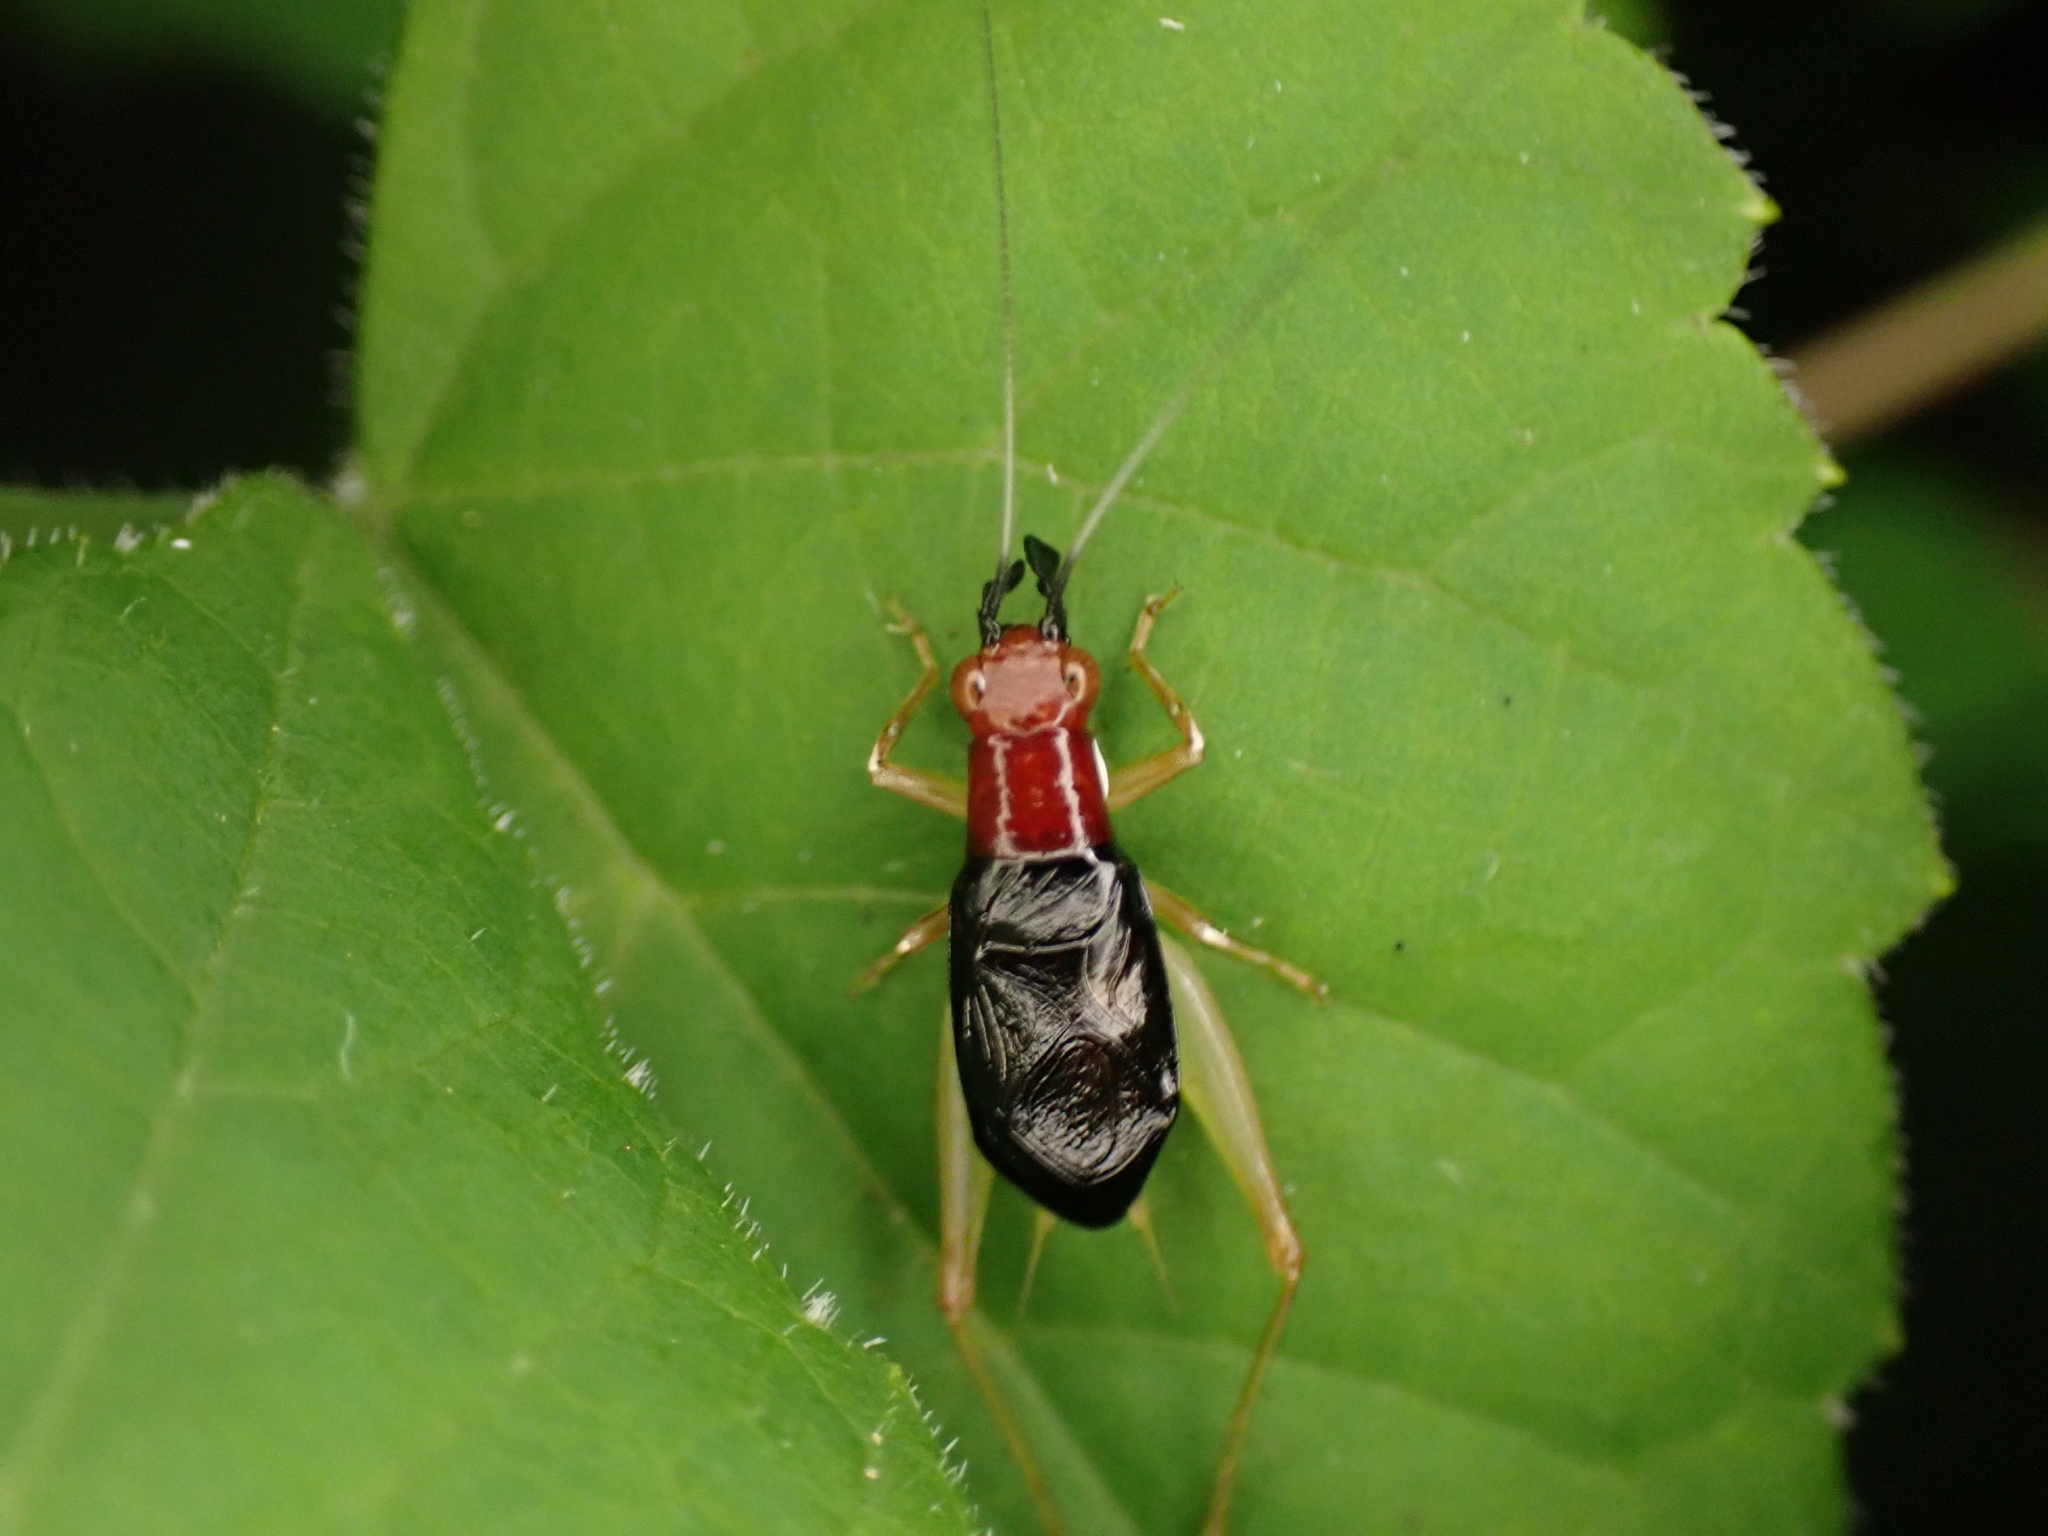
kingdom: Animalia
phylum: Arthropoda
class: Insecta
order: Orthoptera
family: Trigonidiidae
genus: Phyllopalpus
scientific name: Phyllopalpus pulchellus
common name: Handsome trig
